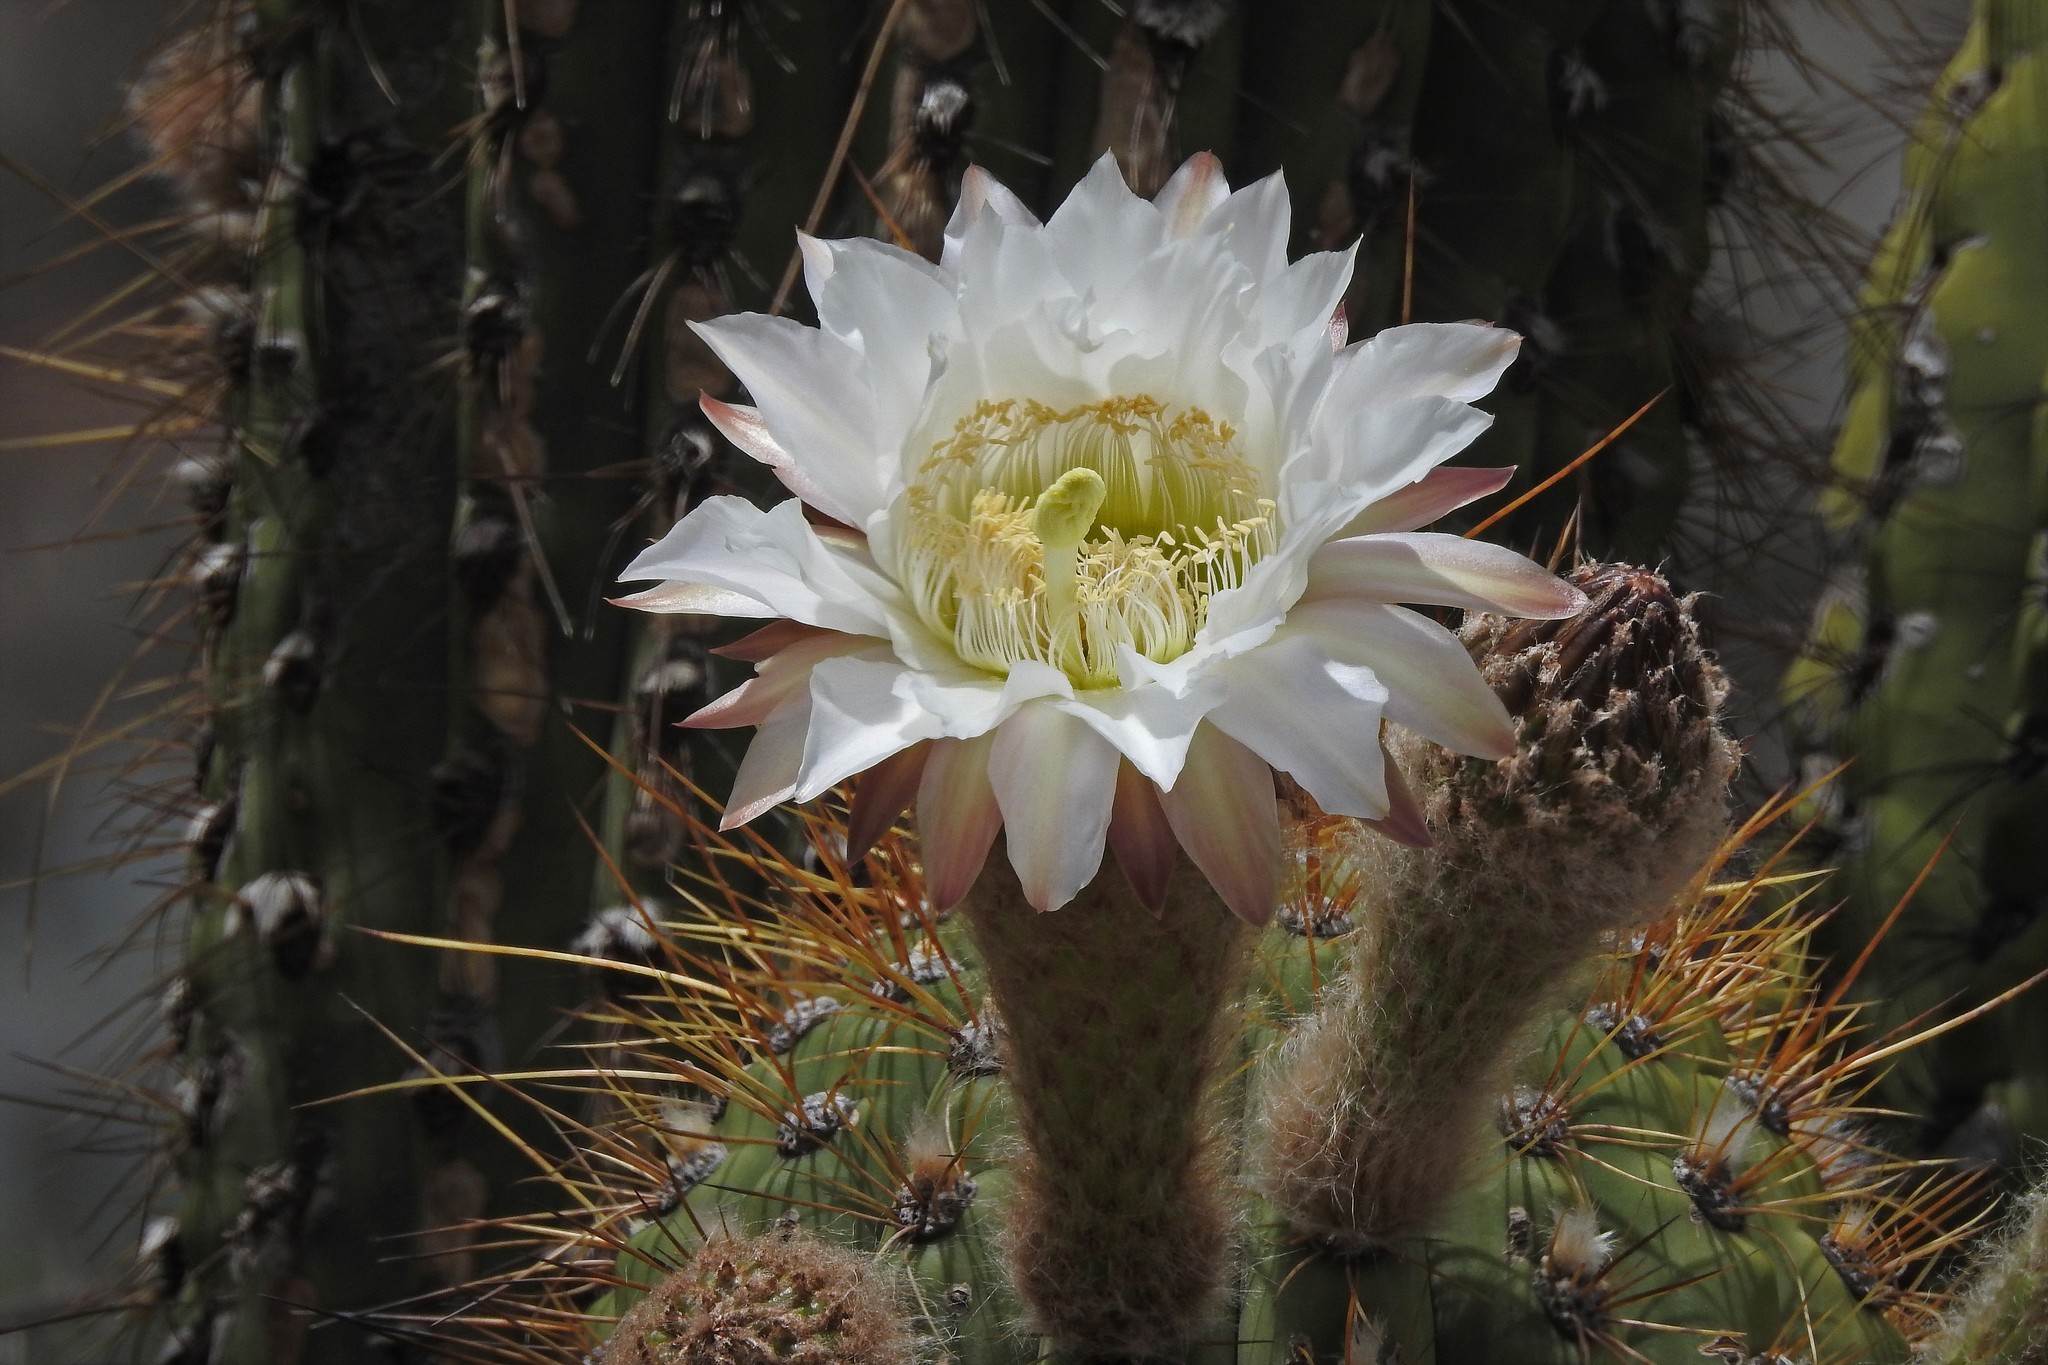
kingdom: Plantae
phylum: Tracheophyta
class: Magnoliopsida
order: Caryophyllales
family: Cactaceae
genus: Leucostele
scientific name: Leucostele terscheckii
